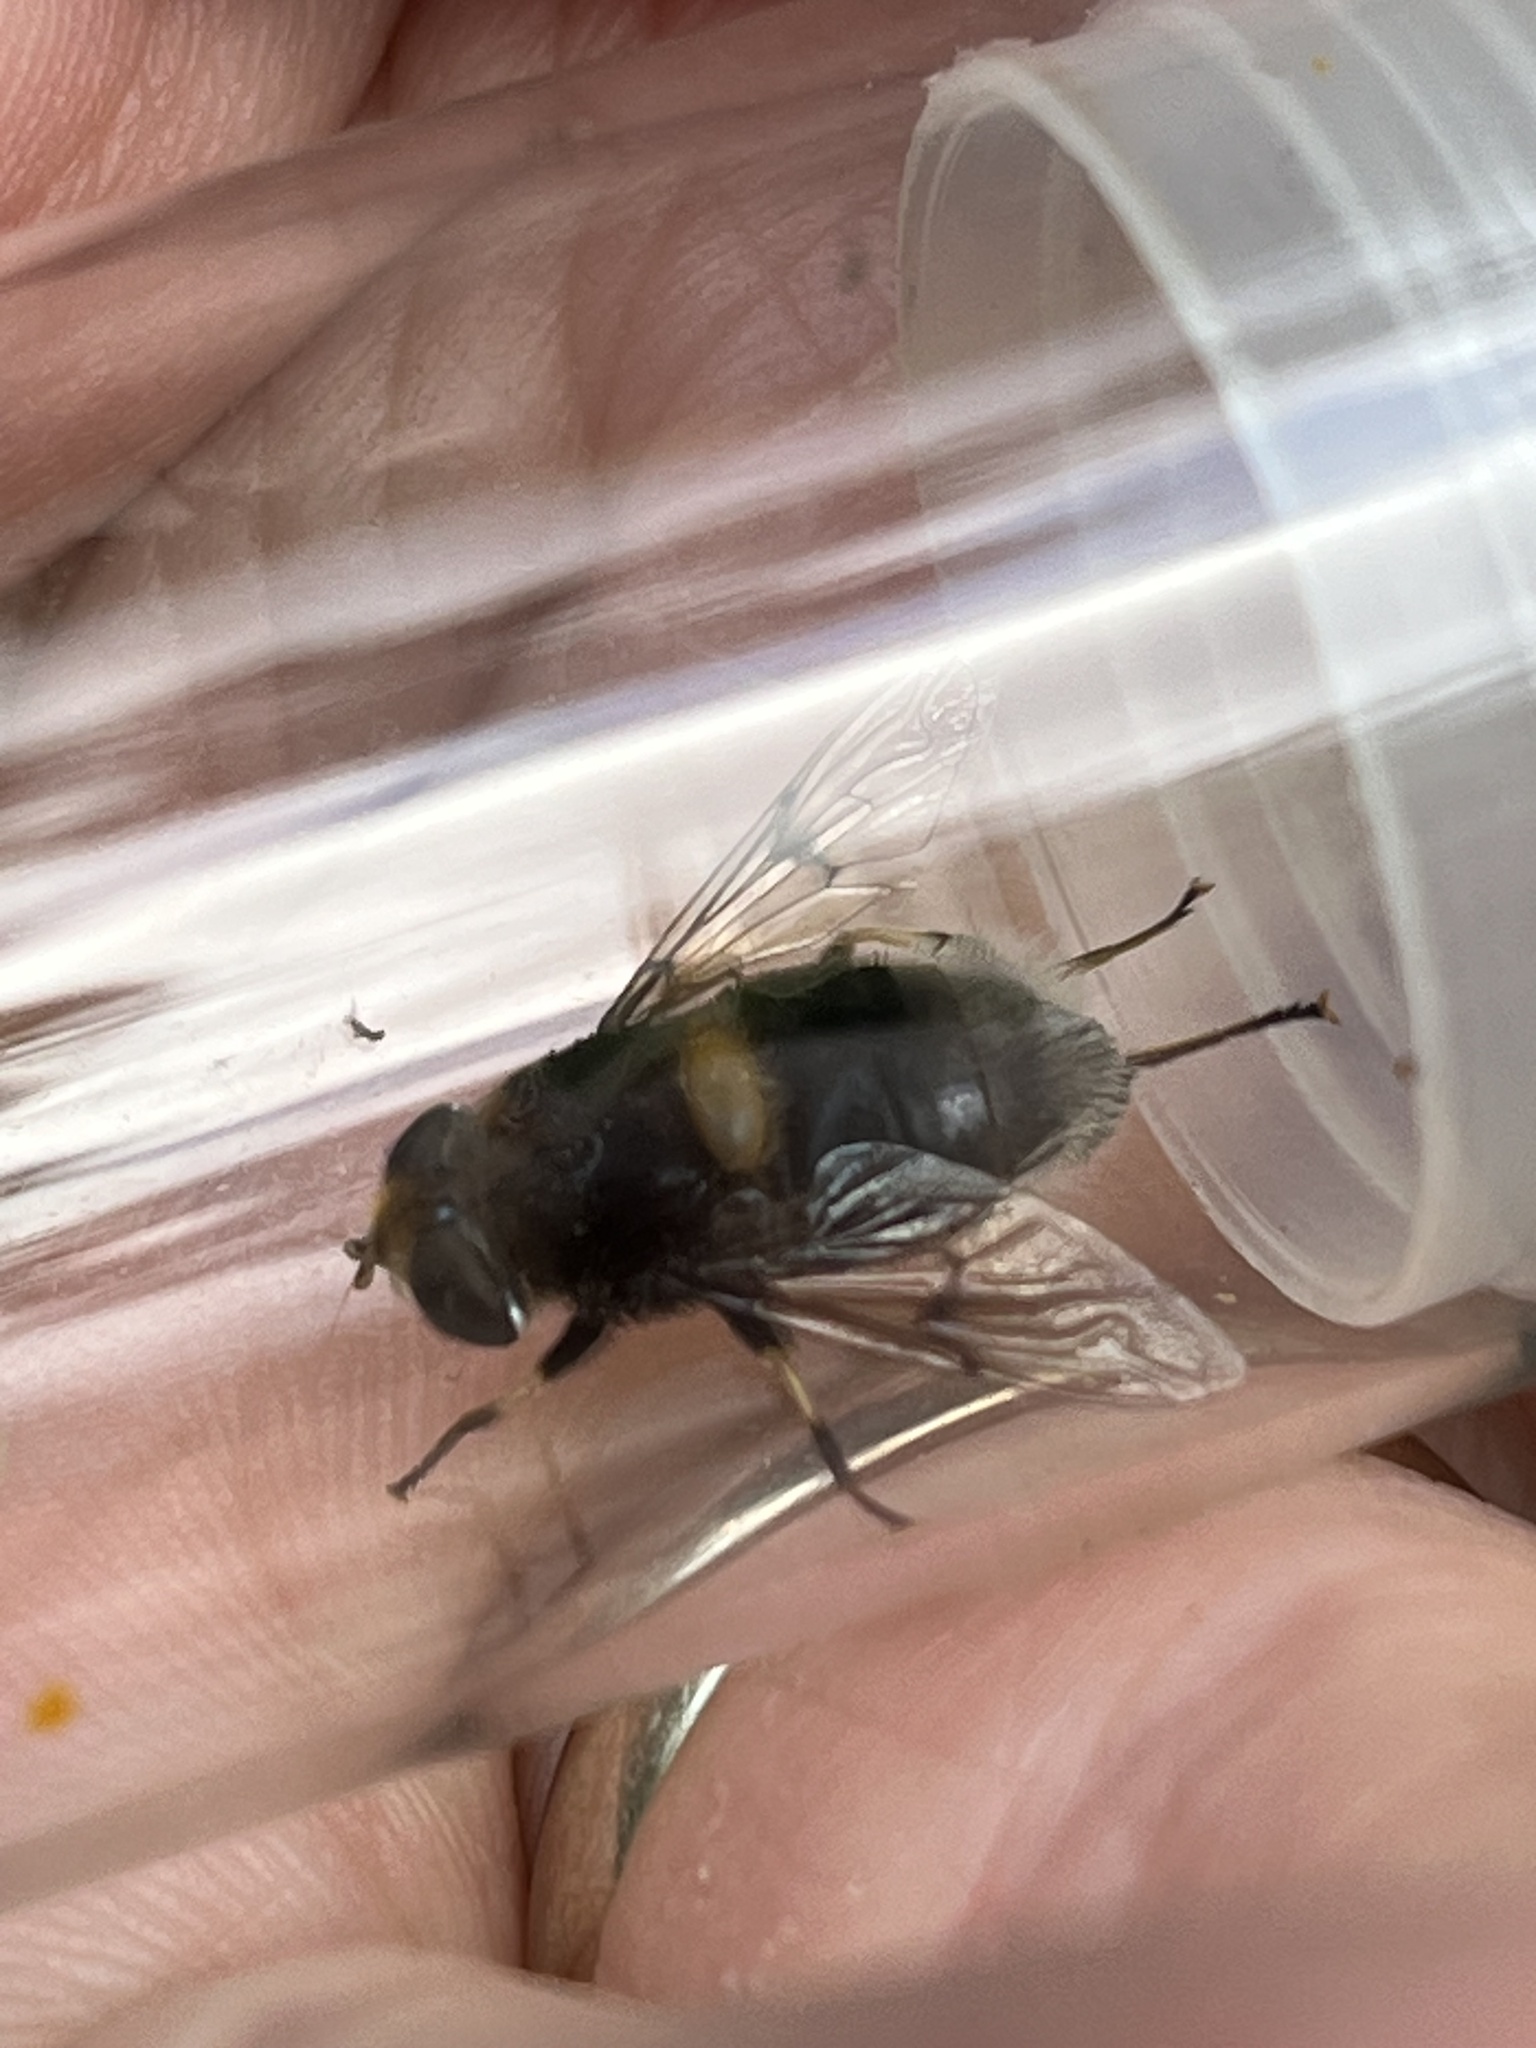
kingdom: Animalia
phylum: Arthropoda
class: Insecta
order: Diptera
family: Syrphidae
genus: Eristalis
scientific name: Eristalis intricaria
